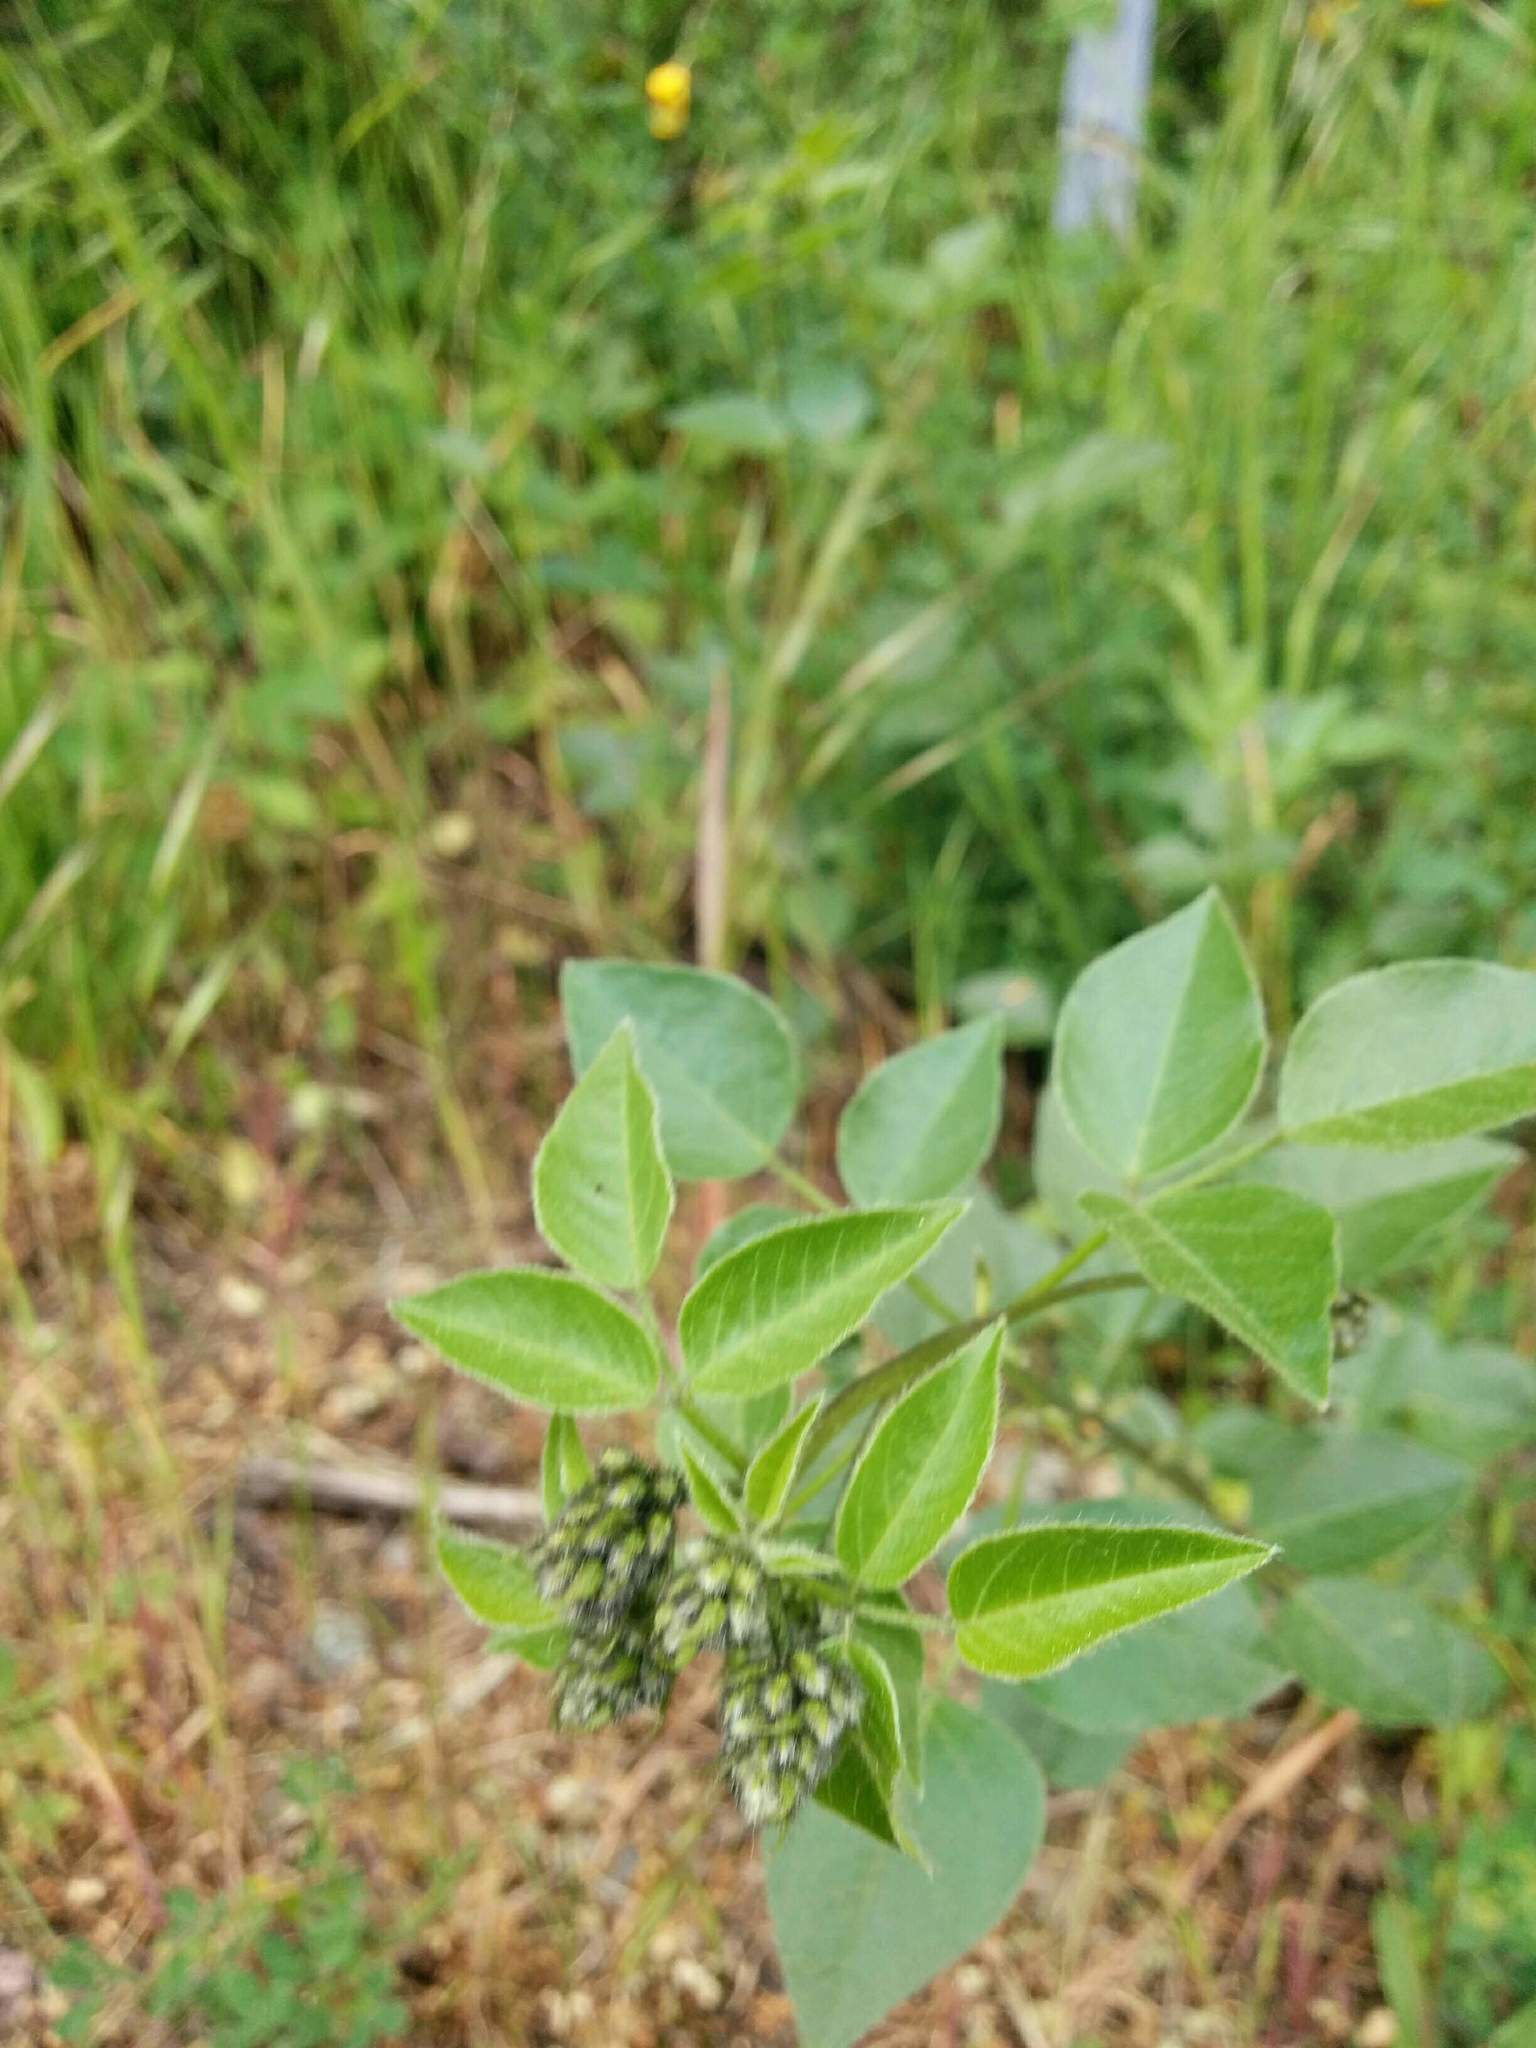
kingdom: Plantae
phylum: Tracheophyta
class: Magnoliopsida
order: Fabales
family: Fabaceae
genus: Rupertia
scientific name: Rupertia physodes
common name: California-tea
